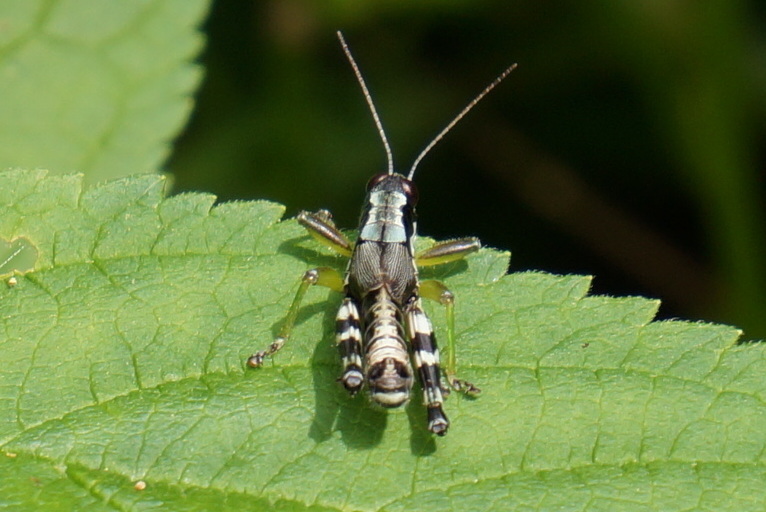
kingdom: Animalia
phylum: Arthropoda
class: Insecta
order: Orthoptera
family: Acrididae
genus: Melanoplus
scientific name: Melanoplus viridipes
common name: Green-legged locust
